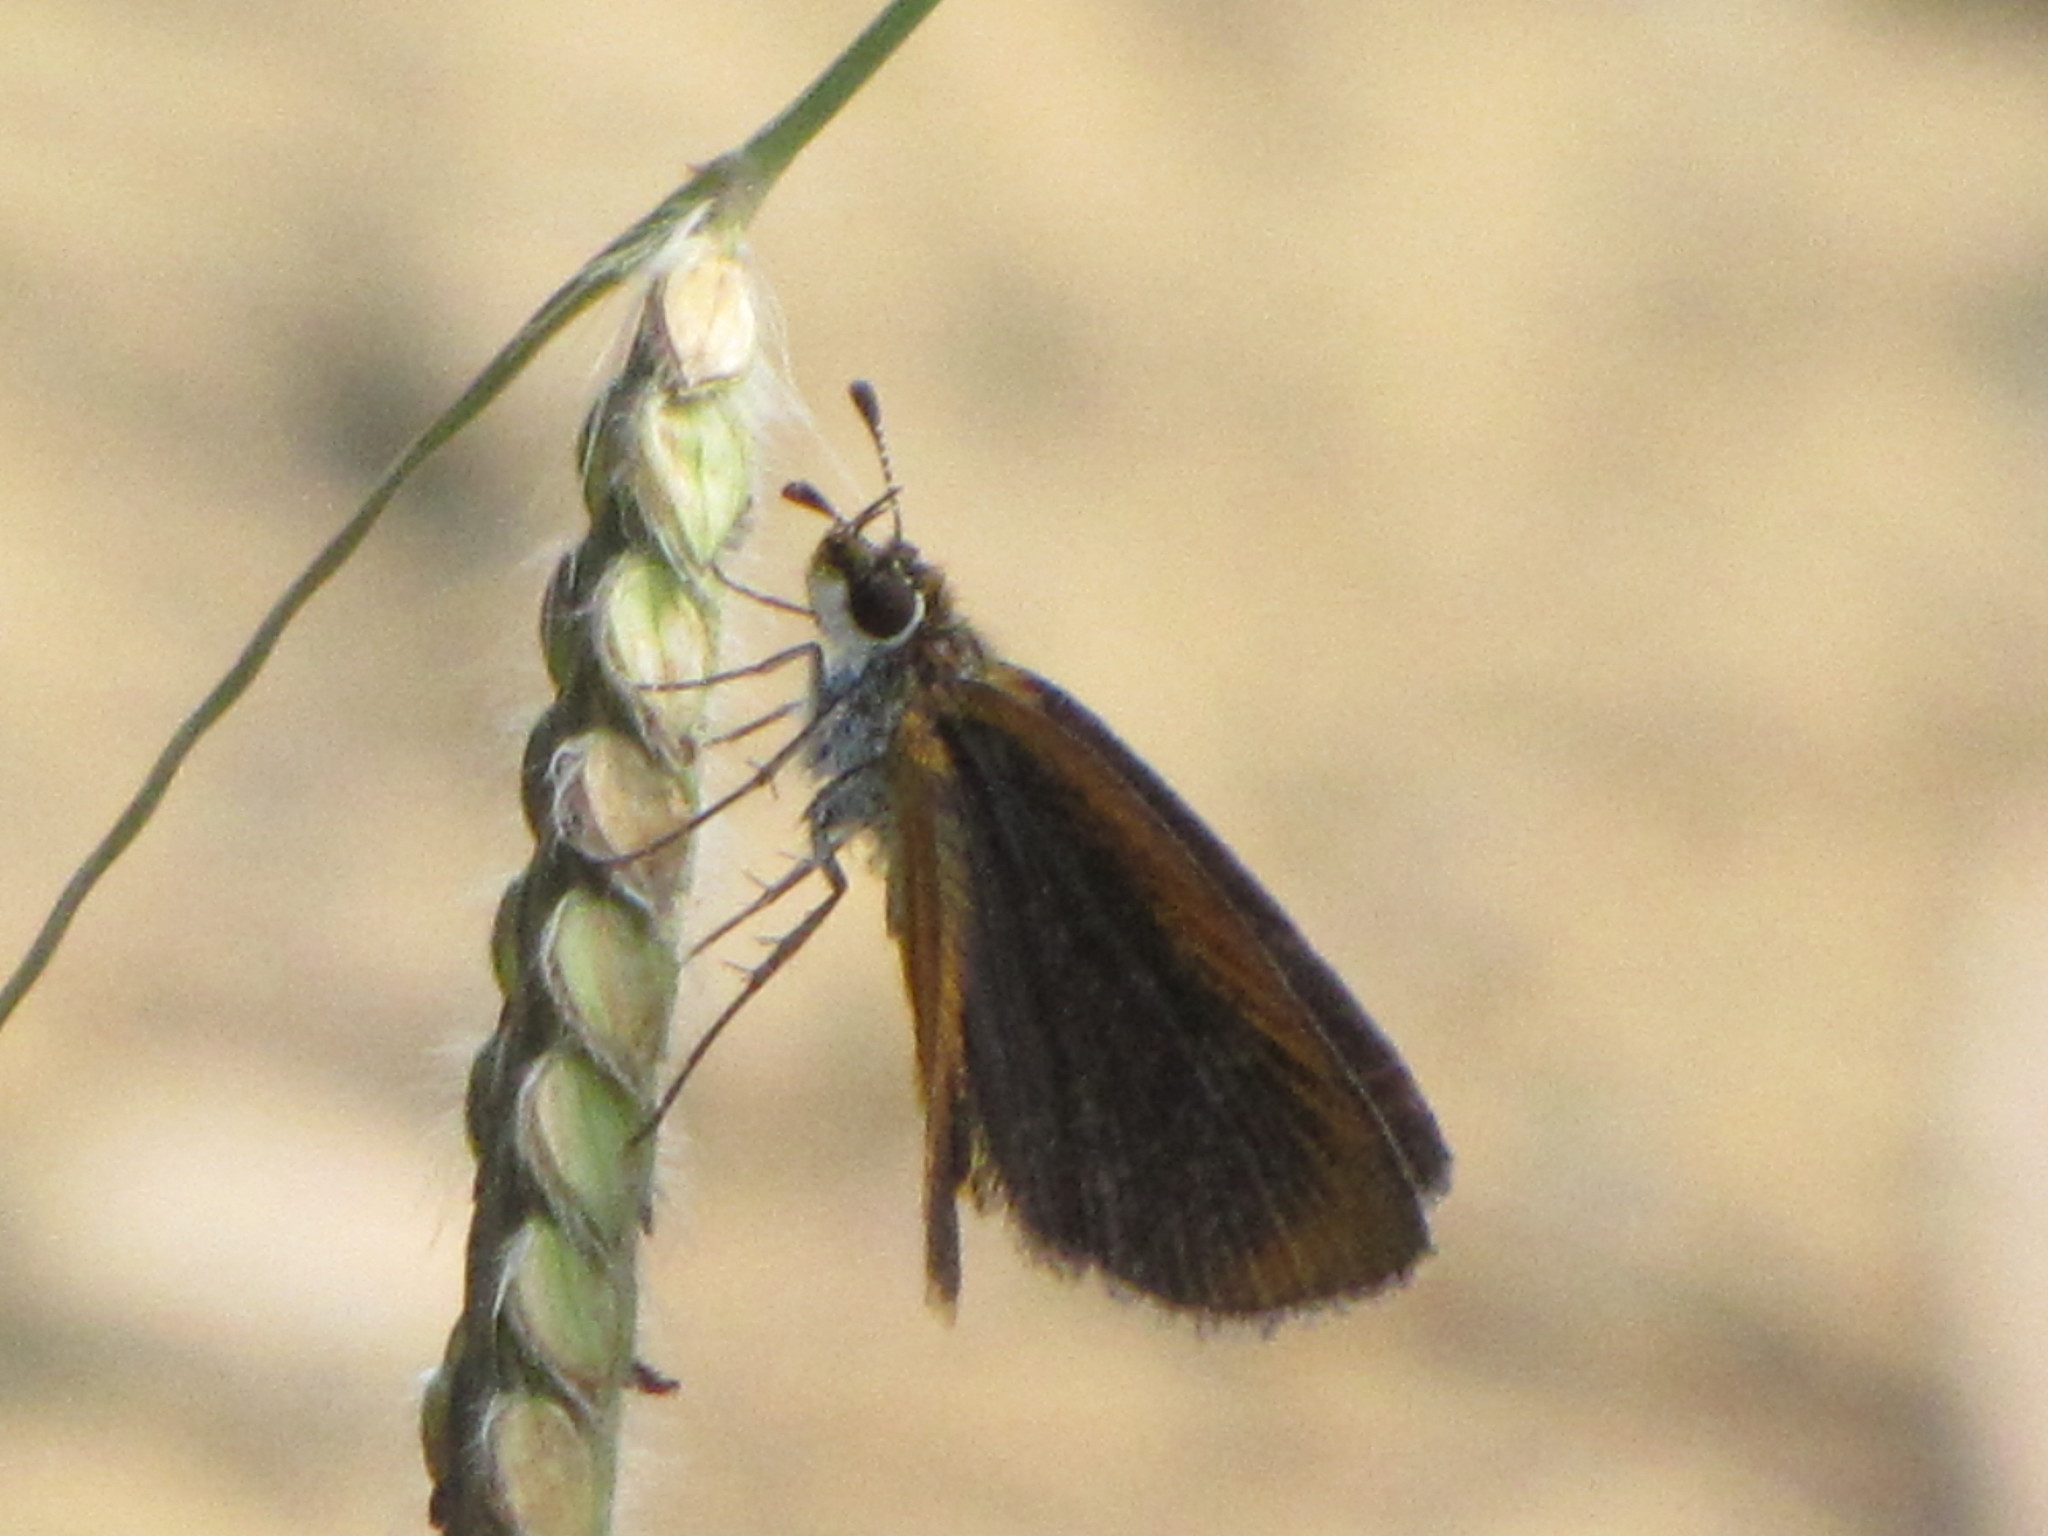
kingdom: Animalia
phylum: Arthropoda
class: Insecta
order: Lepidoptera
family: Hesperiidae
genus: Ancyloxypha
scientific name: Ancyloxypha numitor
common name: Least skipper
